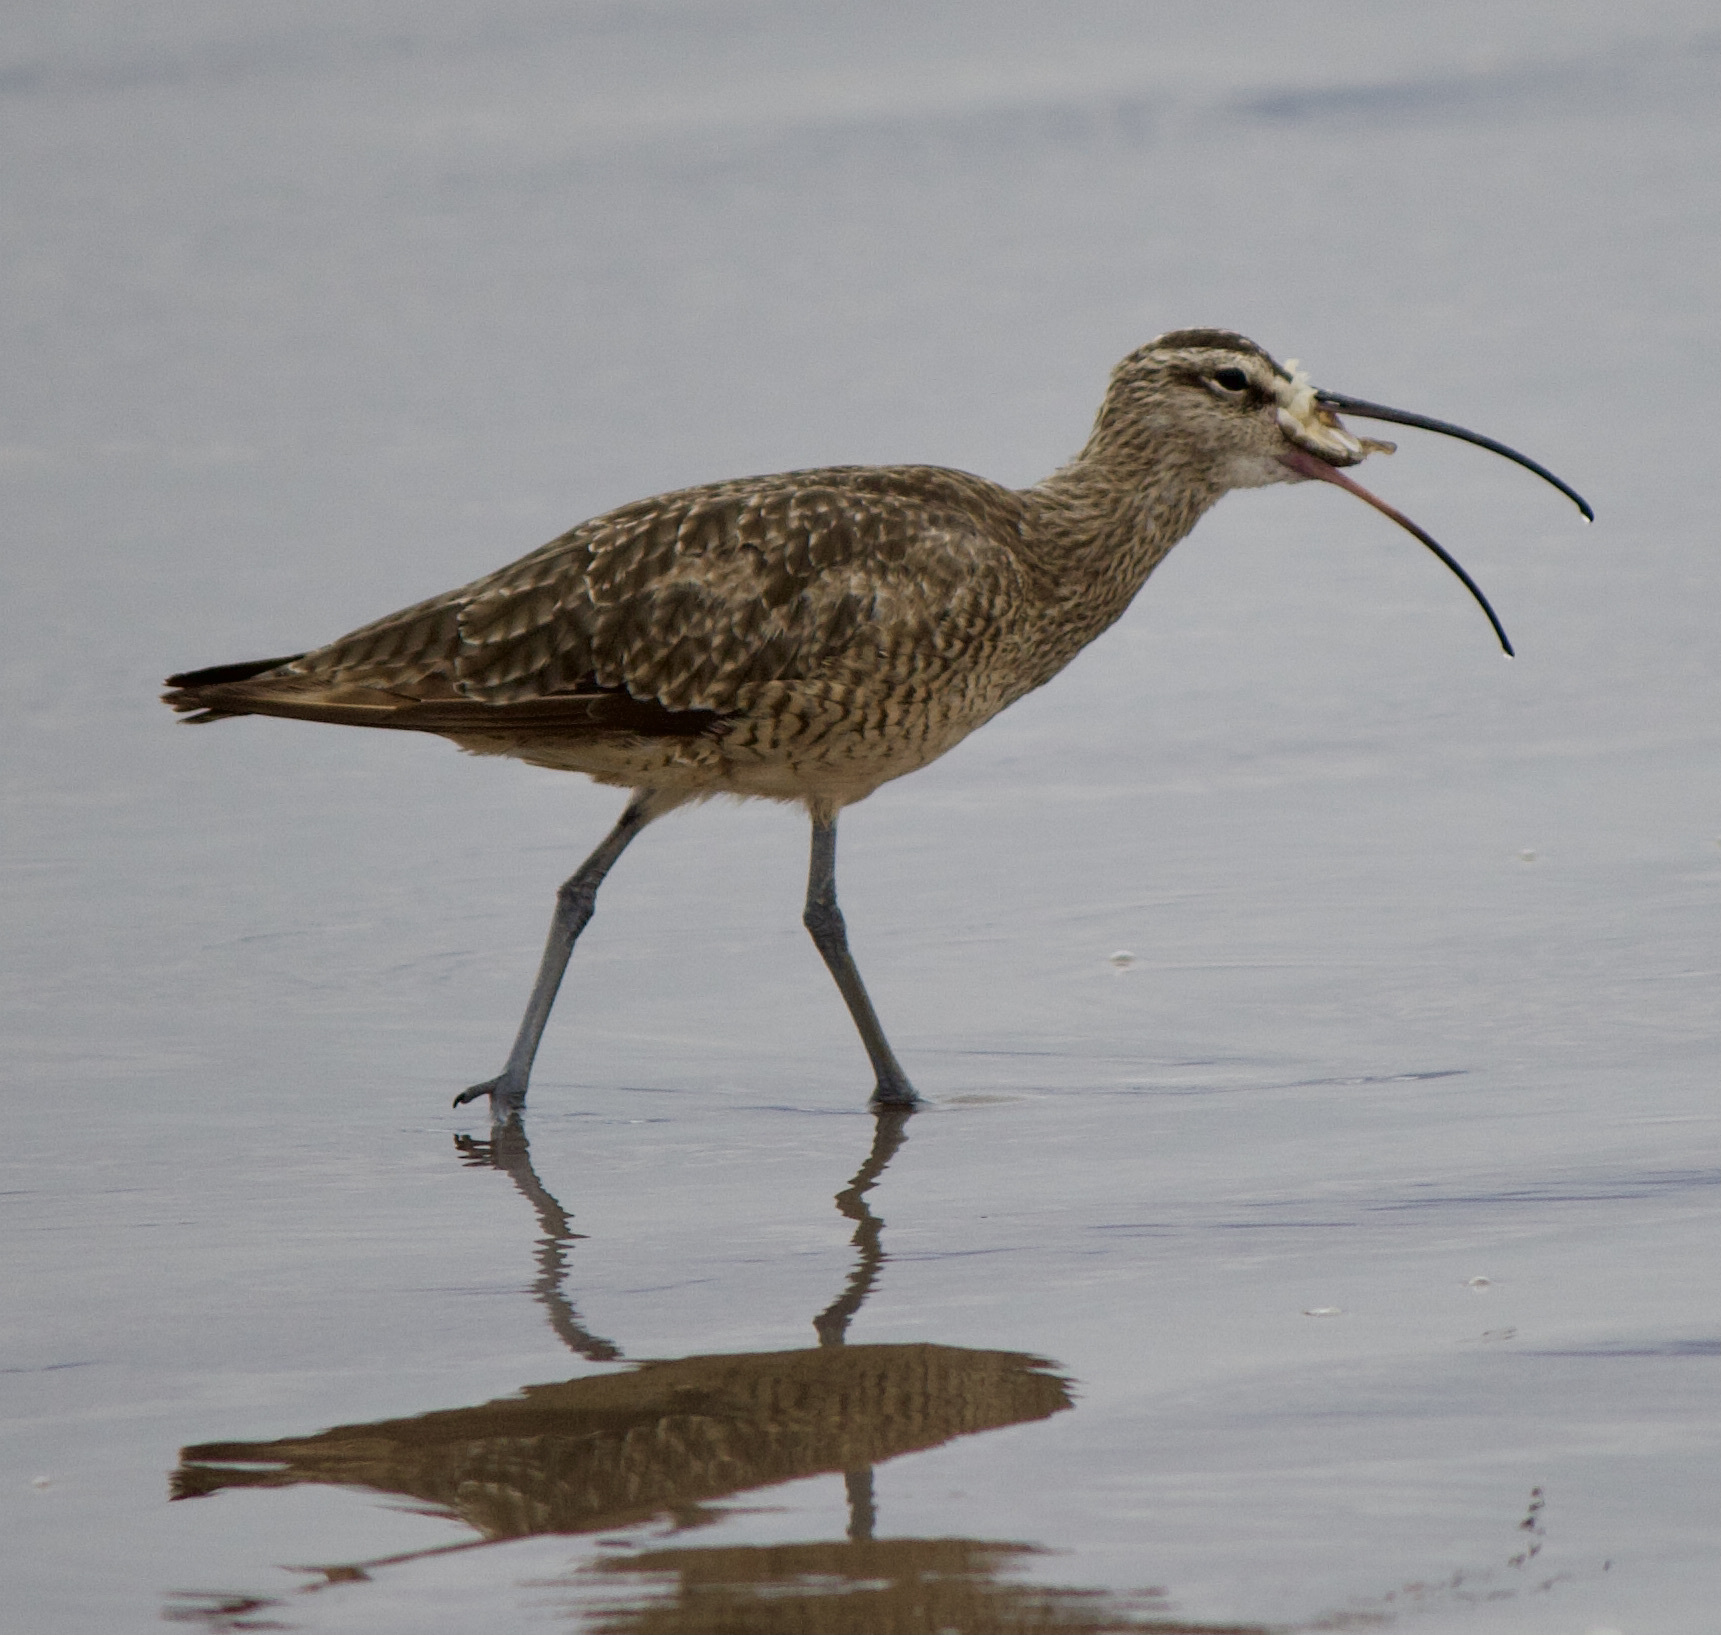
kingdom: Animalia
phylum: Chordata
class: Aves
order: Charadriiformes
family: Scolopacidae
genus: Numenius
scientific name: Numenius phaeopus
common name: Whimbrel
